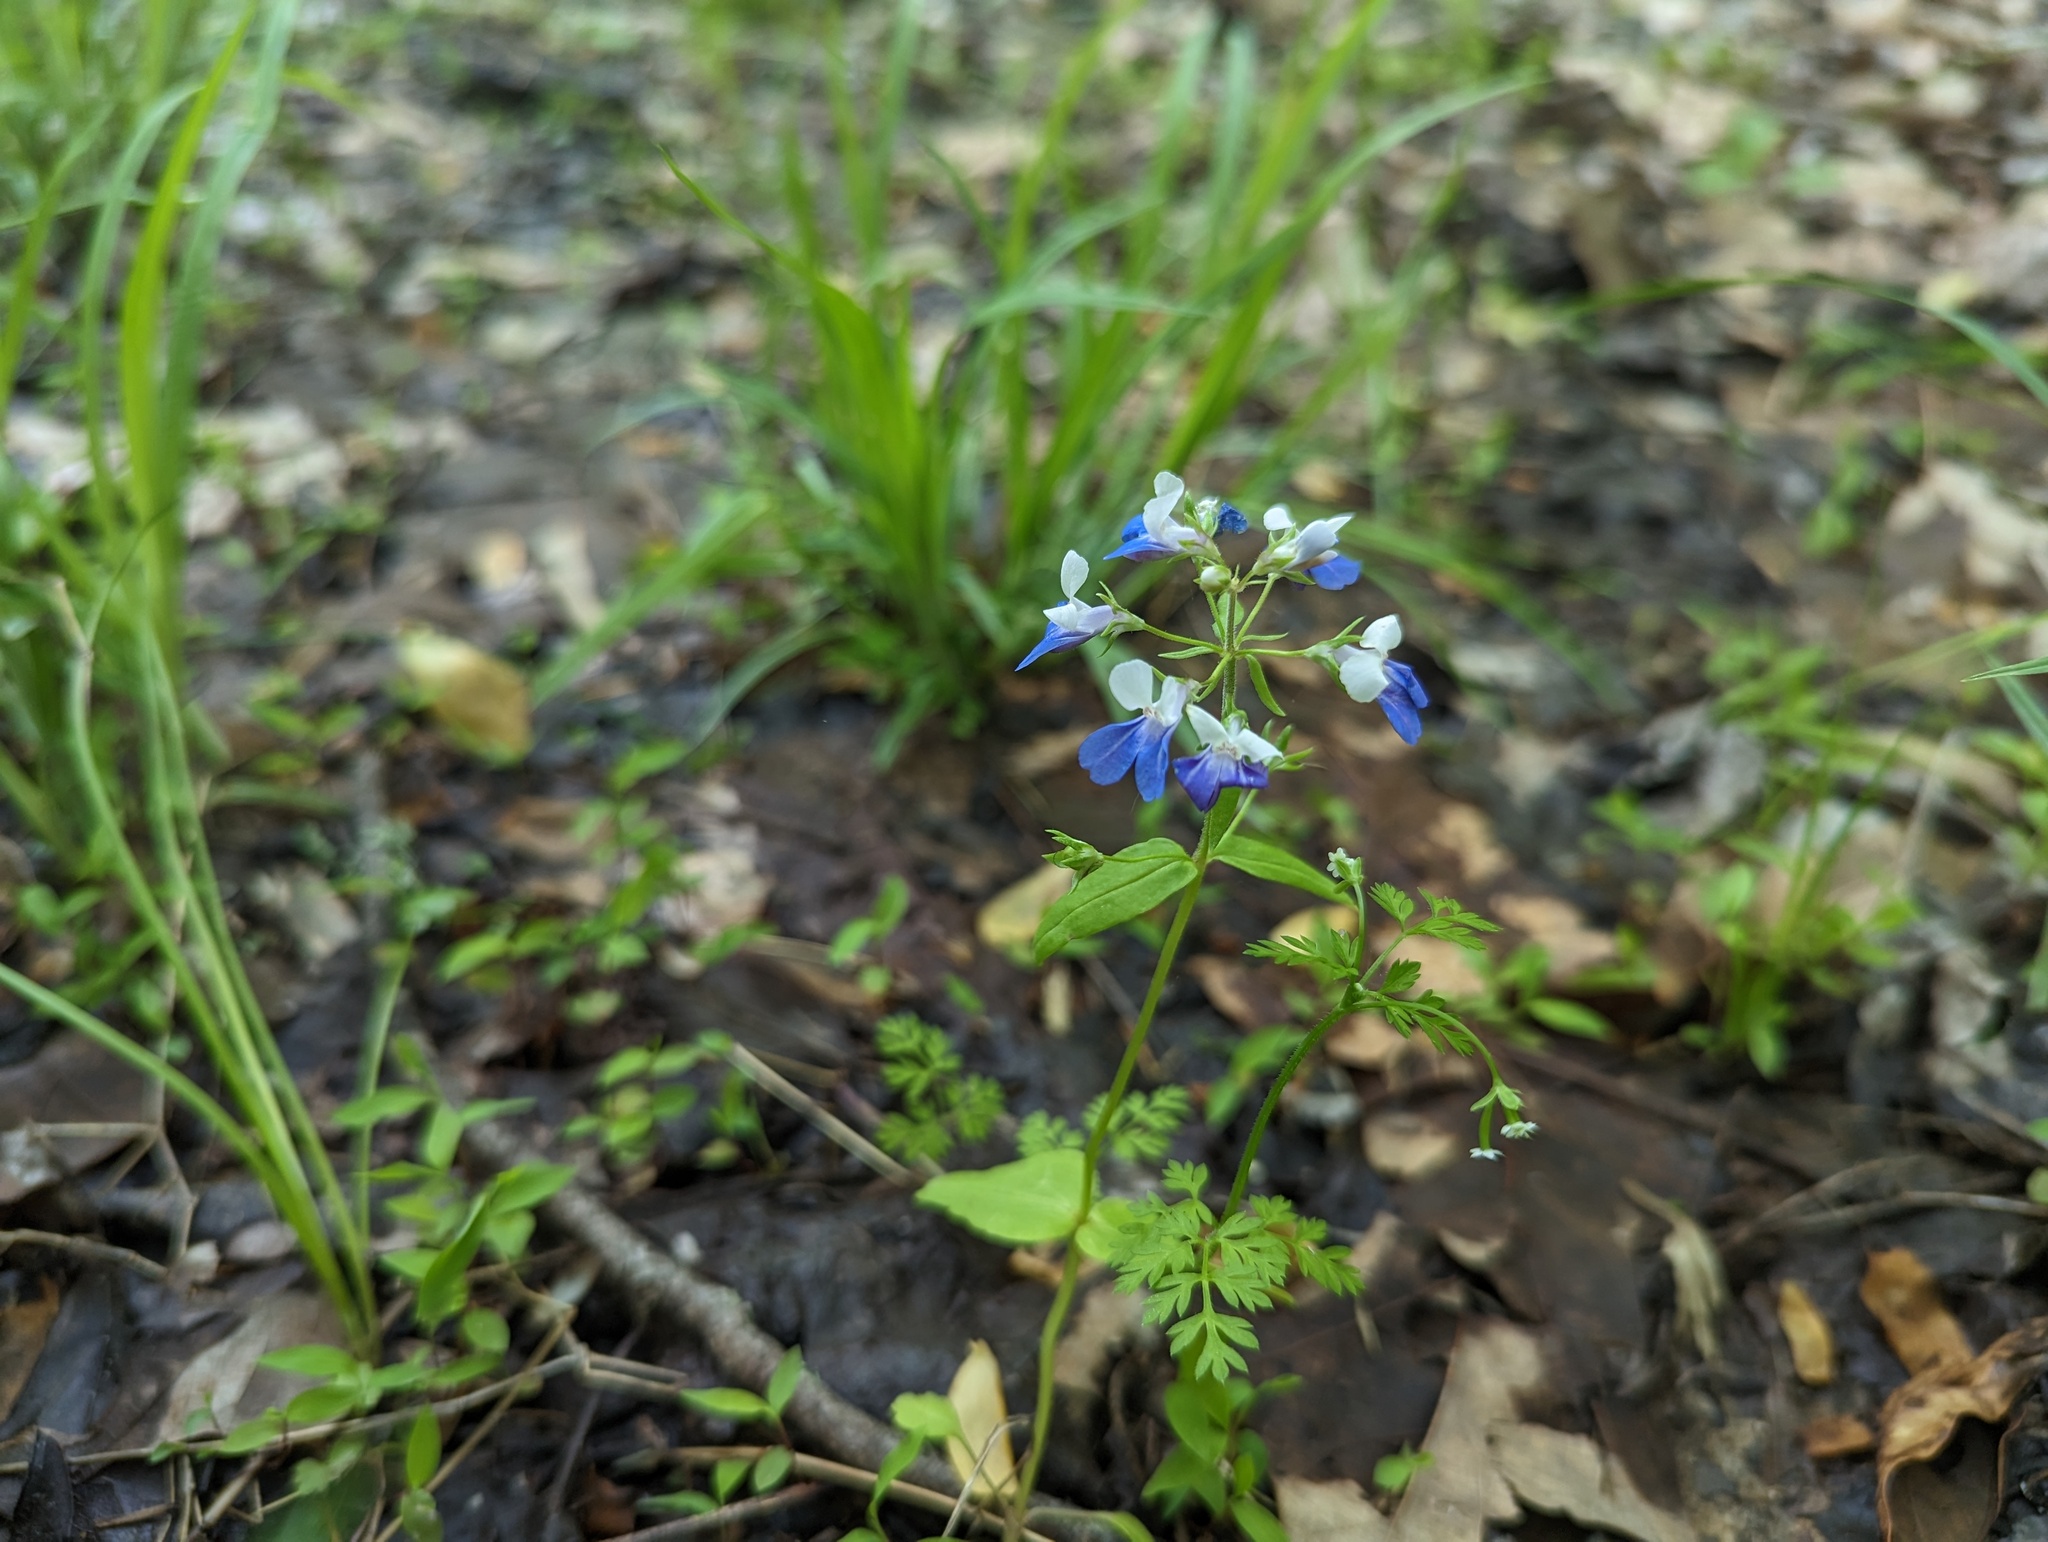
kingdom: Plantae
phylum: Tracheophyta
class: Magnoliopsida
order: Lamiales
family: Plantaginaceae
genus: Collinsia
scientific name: Collinsia verna
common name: Broad-leaved collinsia
